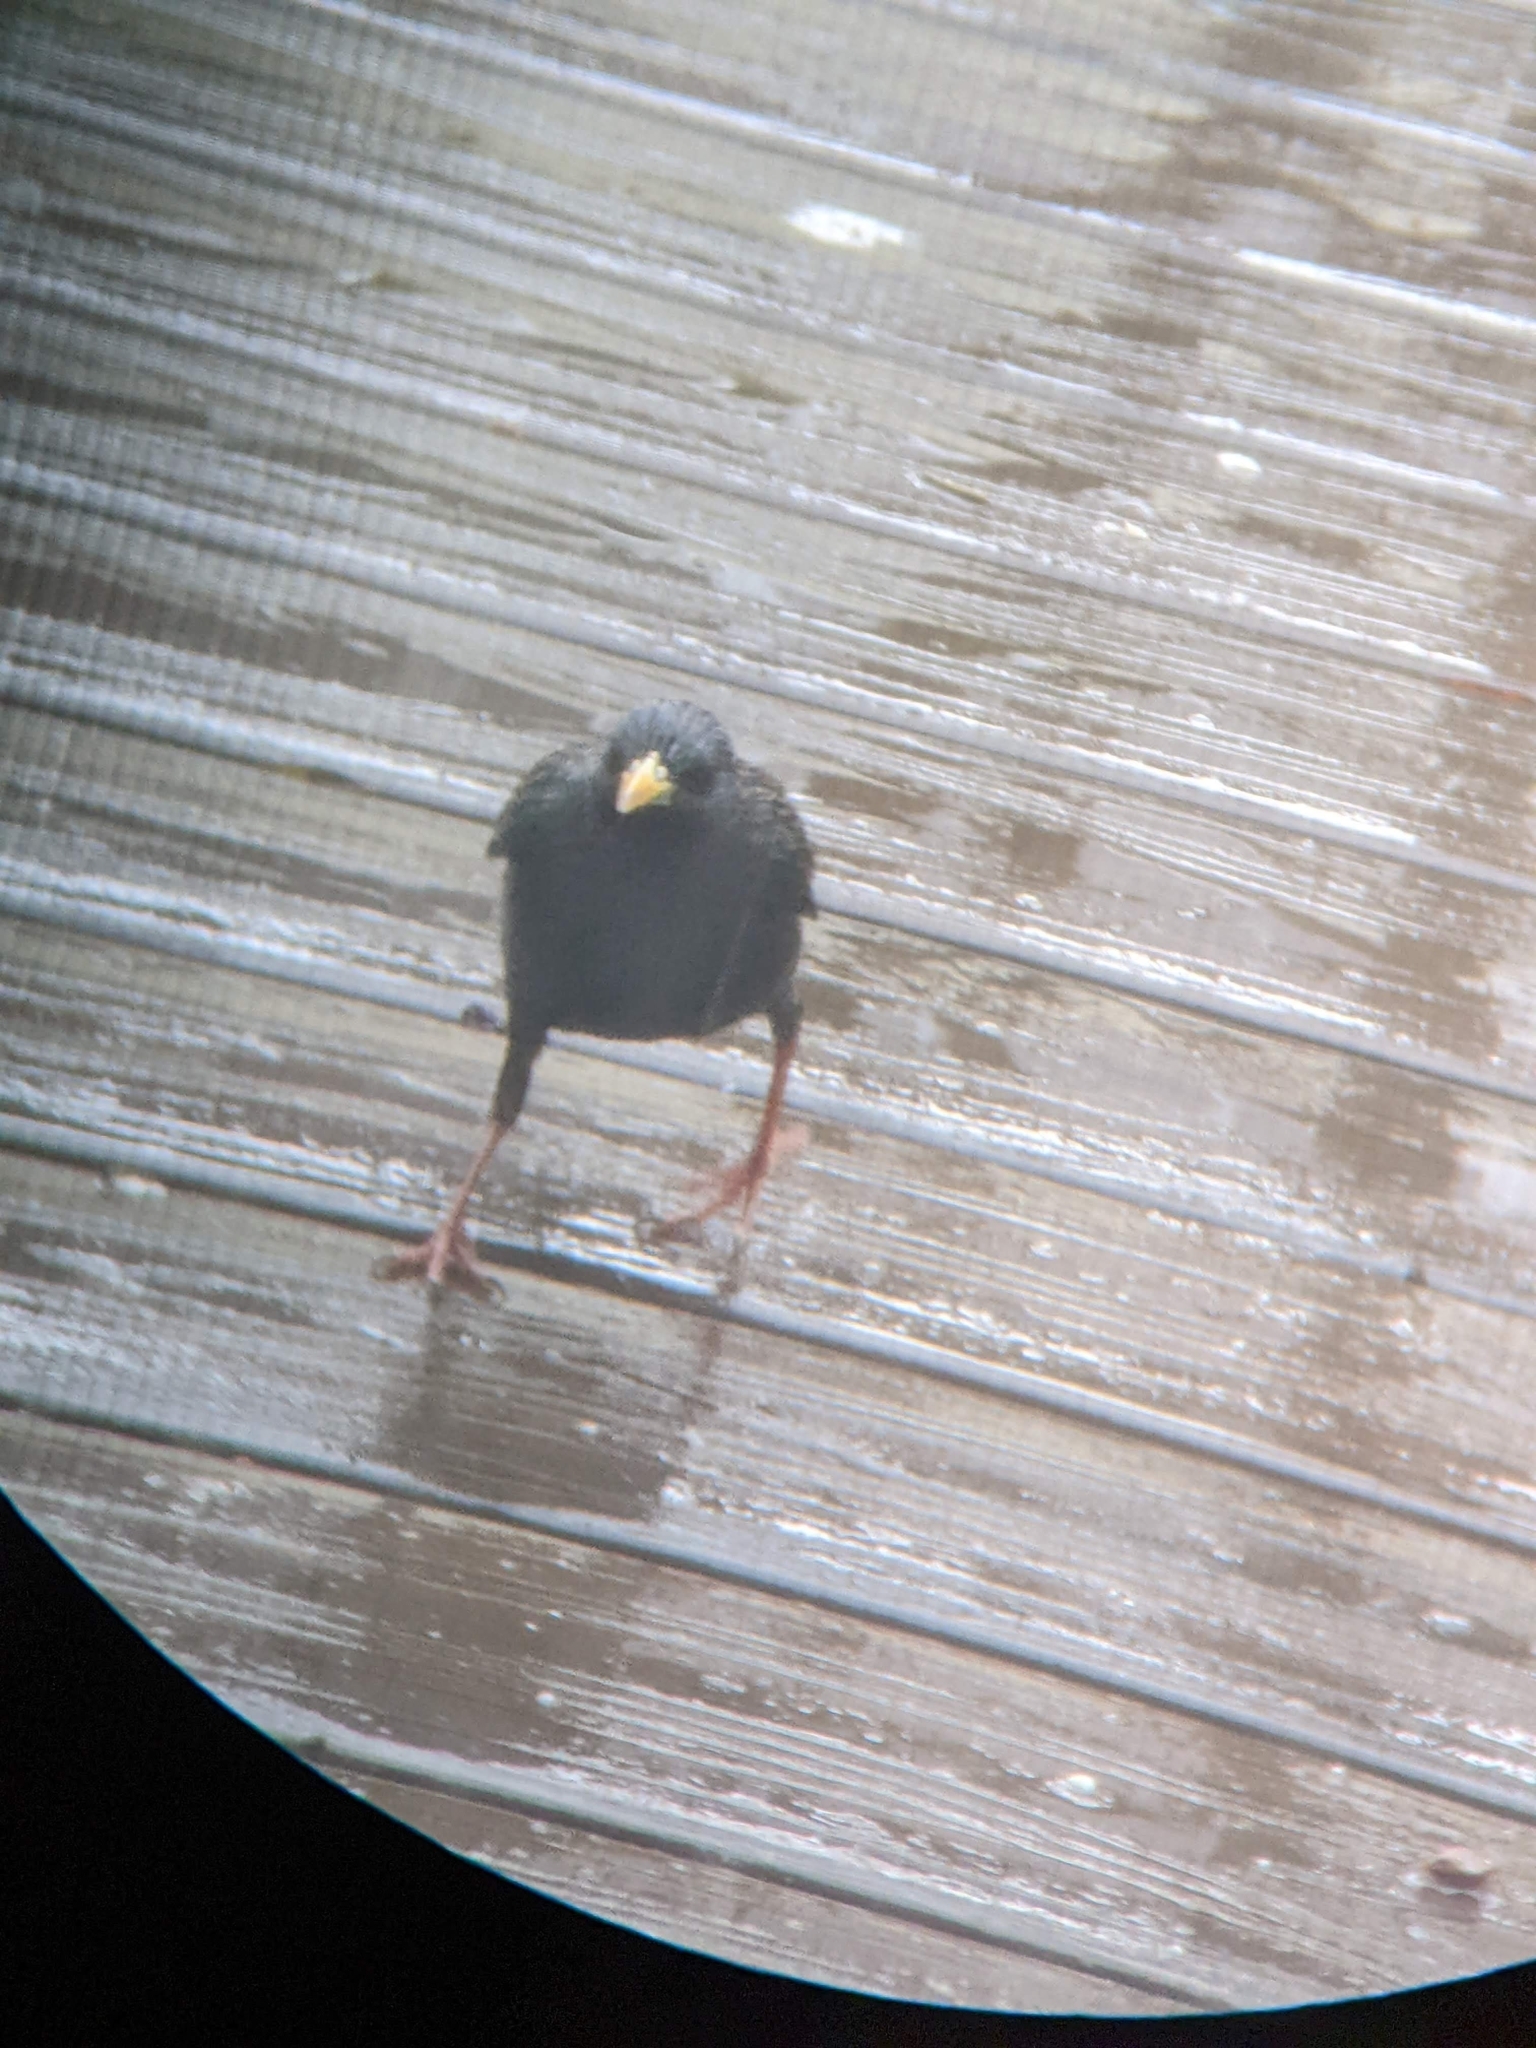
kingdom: Animalia
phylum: Chordata
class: Aves
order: Passeriformes
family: Sturnidae
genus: Sturnus
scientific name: Sturnus vulgaris
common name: Common starling
